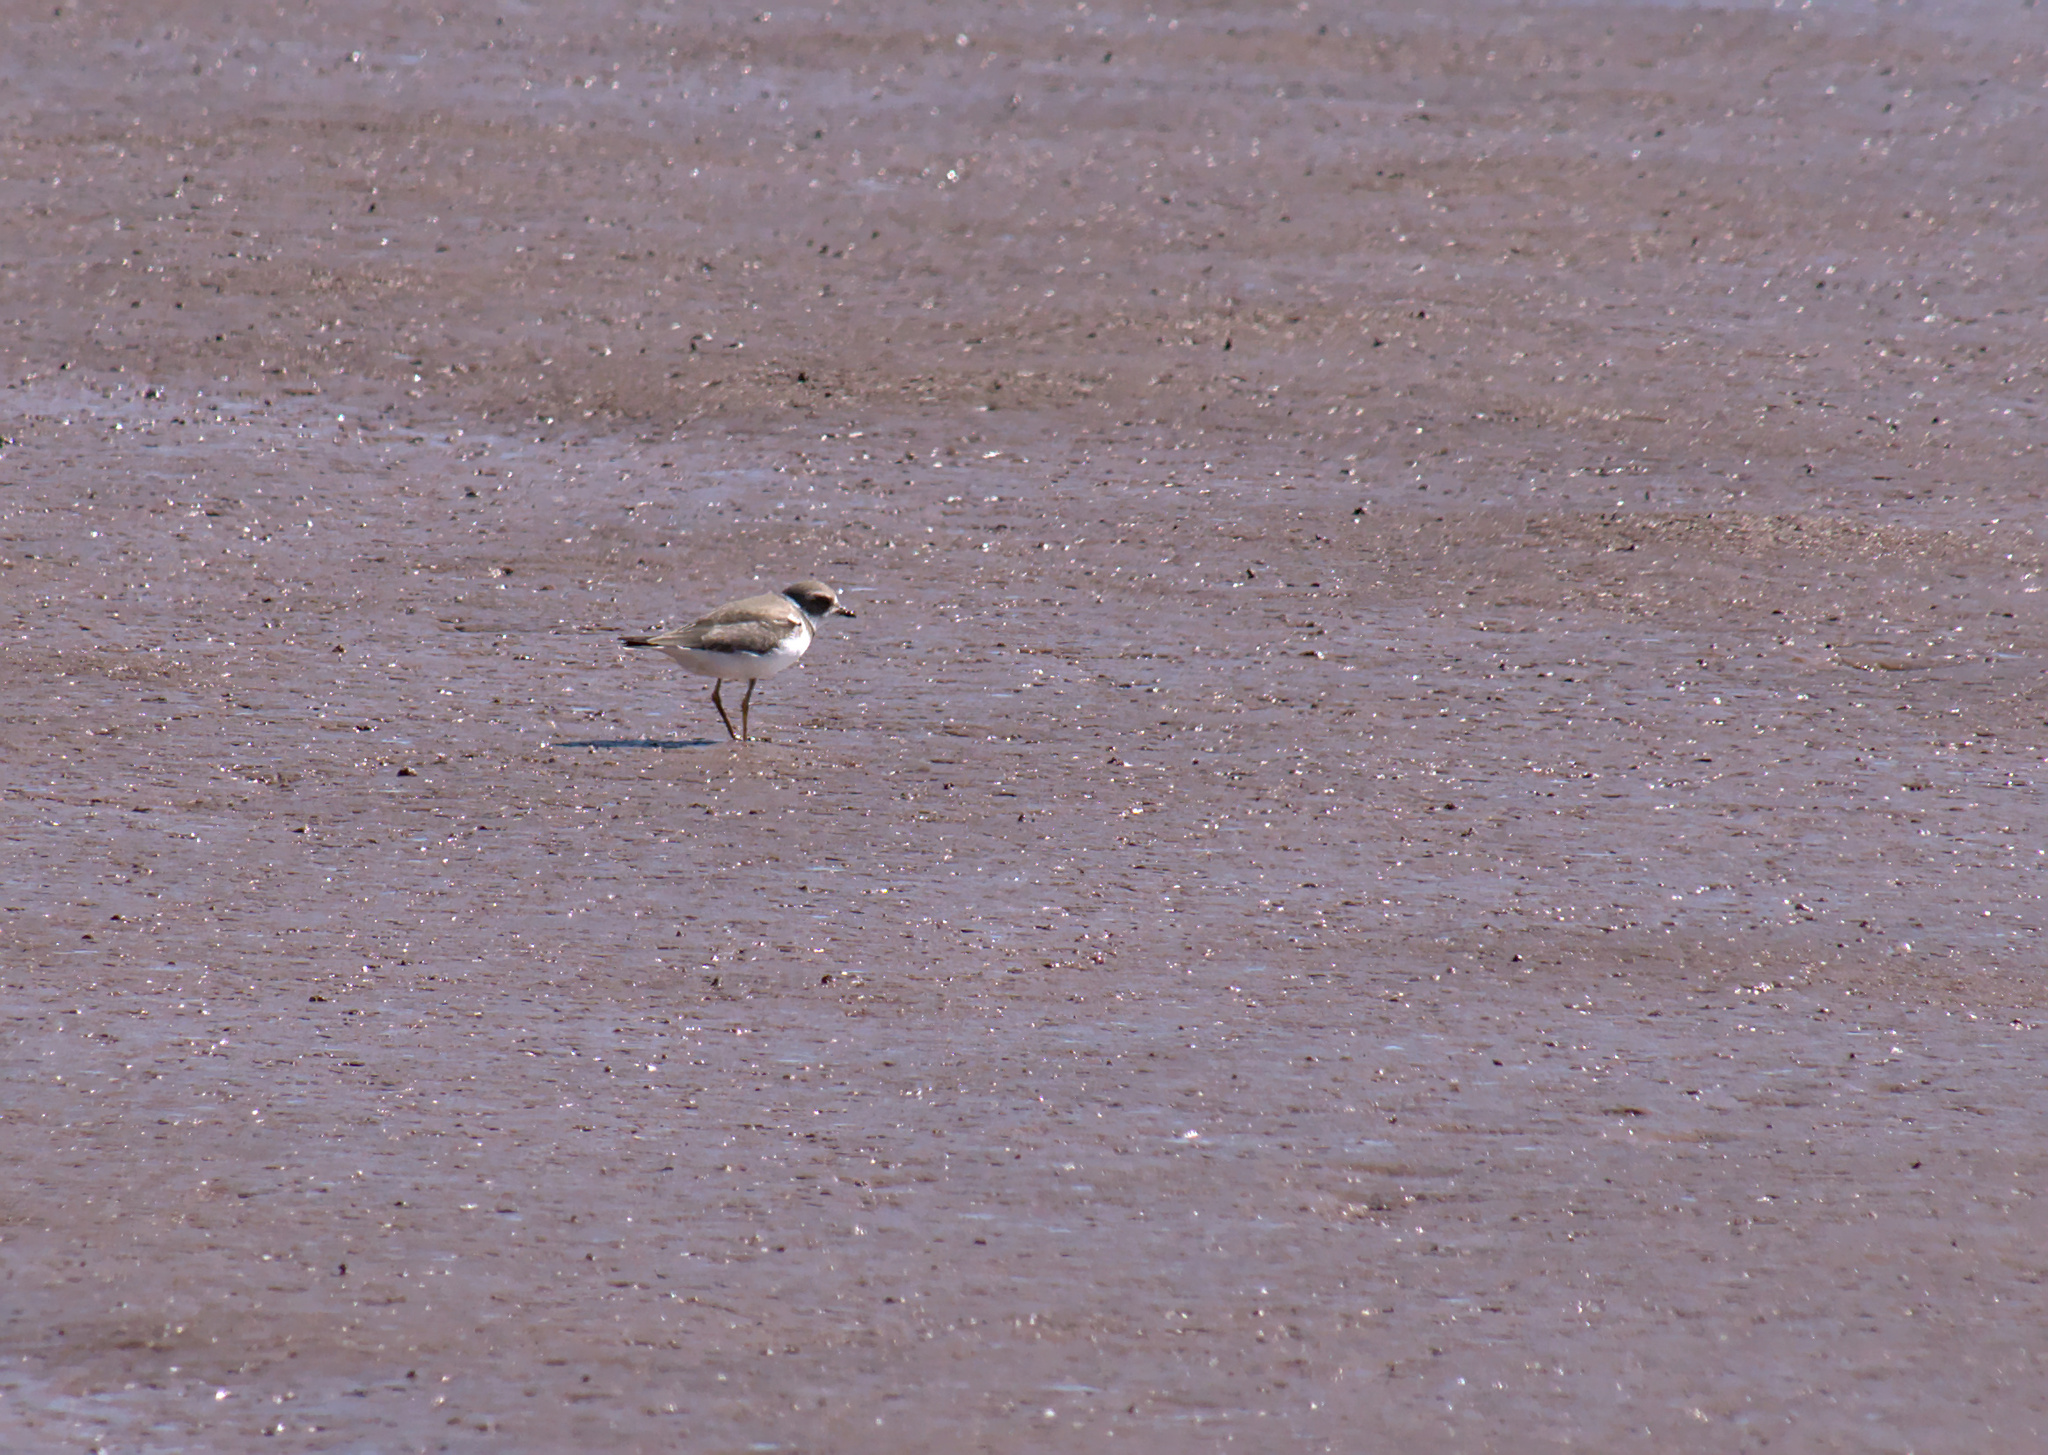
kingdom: Animalia
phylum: Chordata
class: Aves
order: Charadriiformes
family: Charadriidae
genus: Charadrius
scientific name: Charadrius semipalmatus
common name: Semipalmated plover
